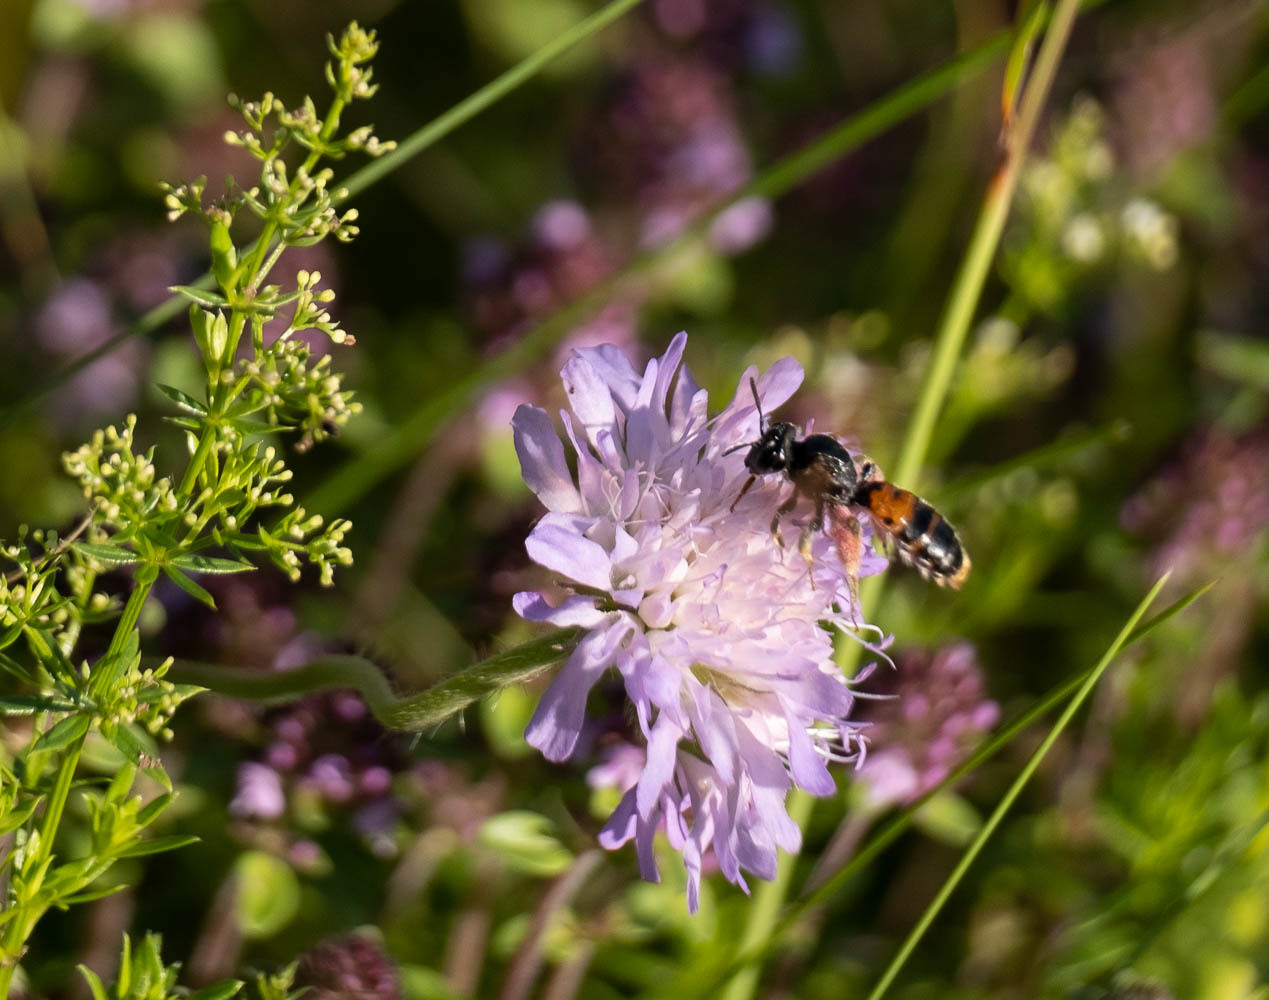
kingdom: Animalia
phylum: Arthropoda
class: Insecta
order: Hymenoptera
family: Andrenidae
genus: Andrena
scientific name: Andrena hattorfiana
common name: Large scabious mining bee
